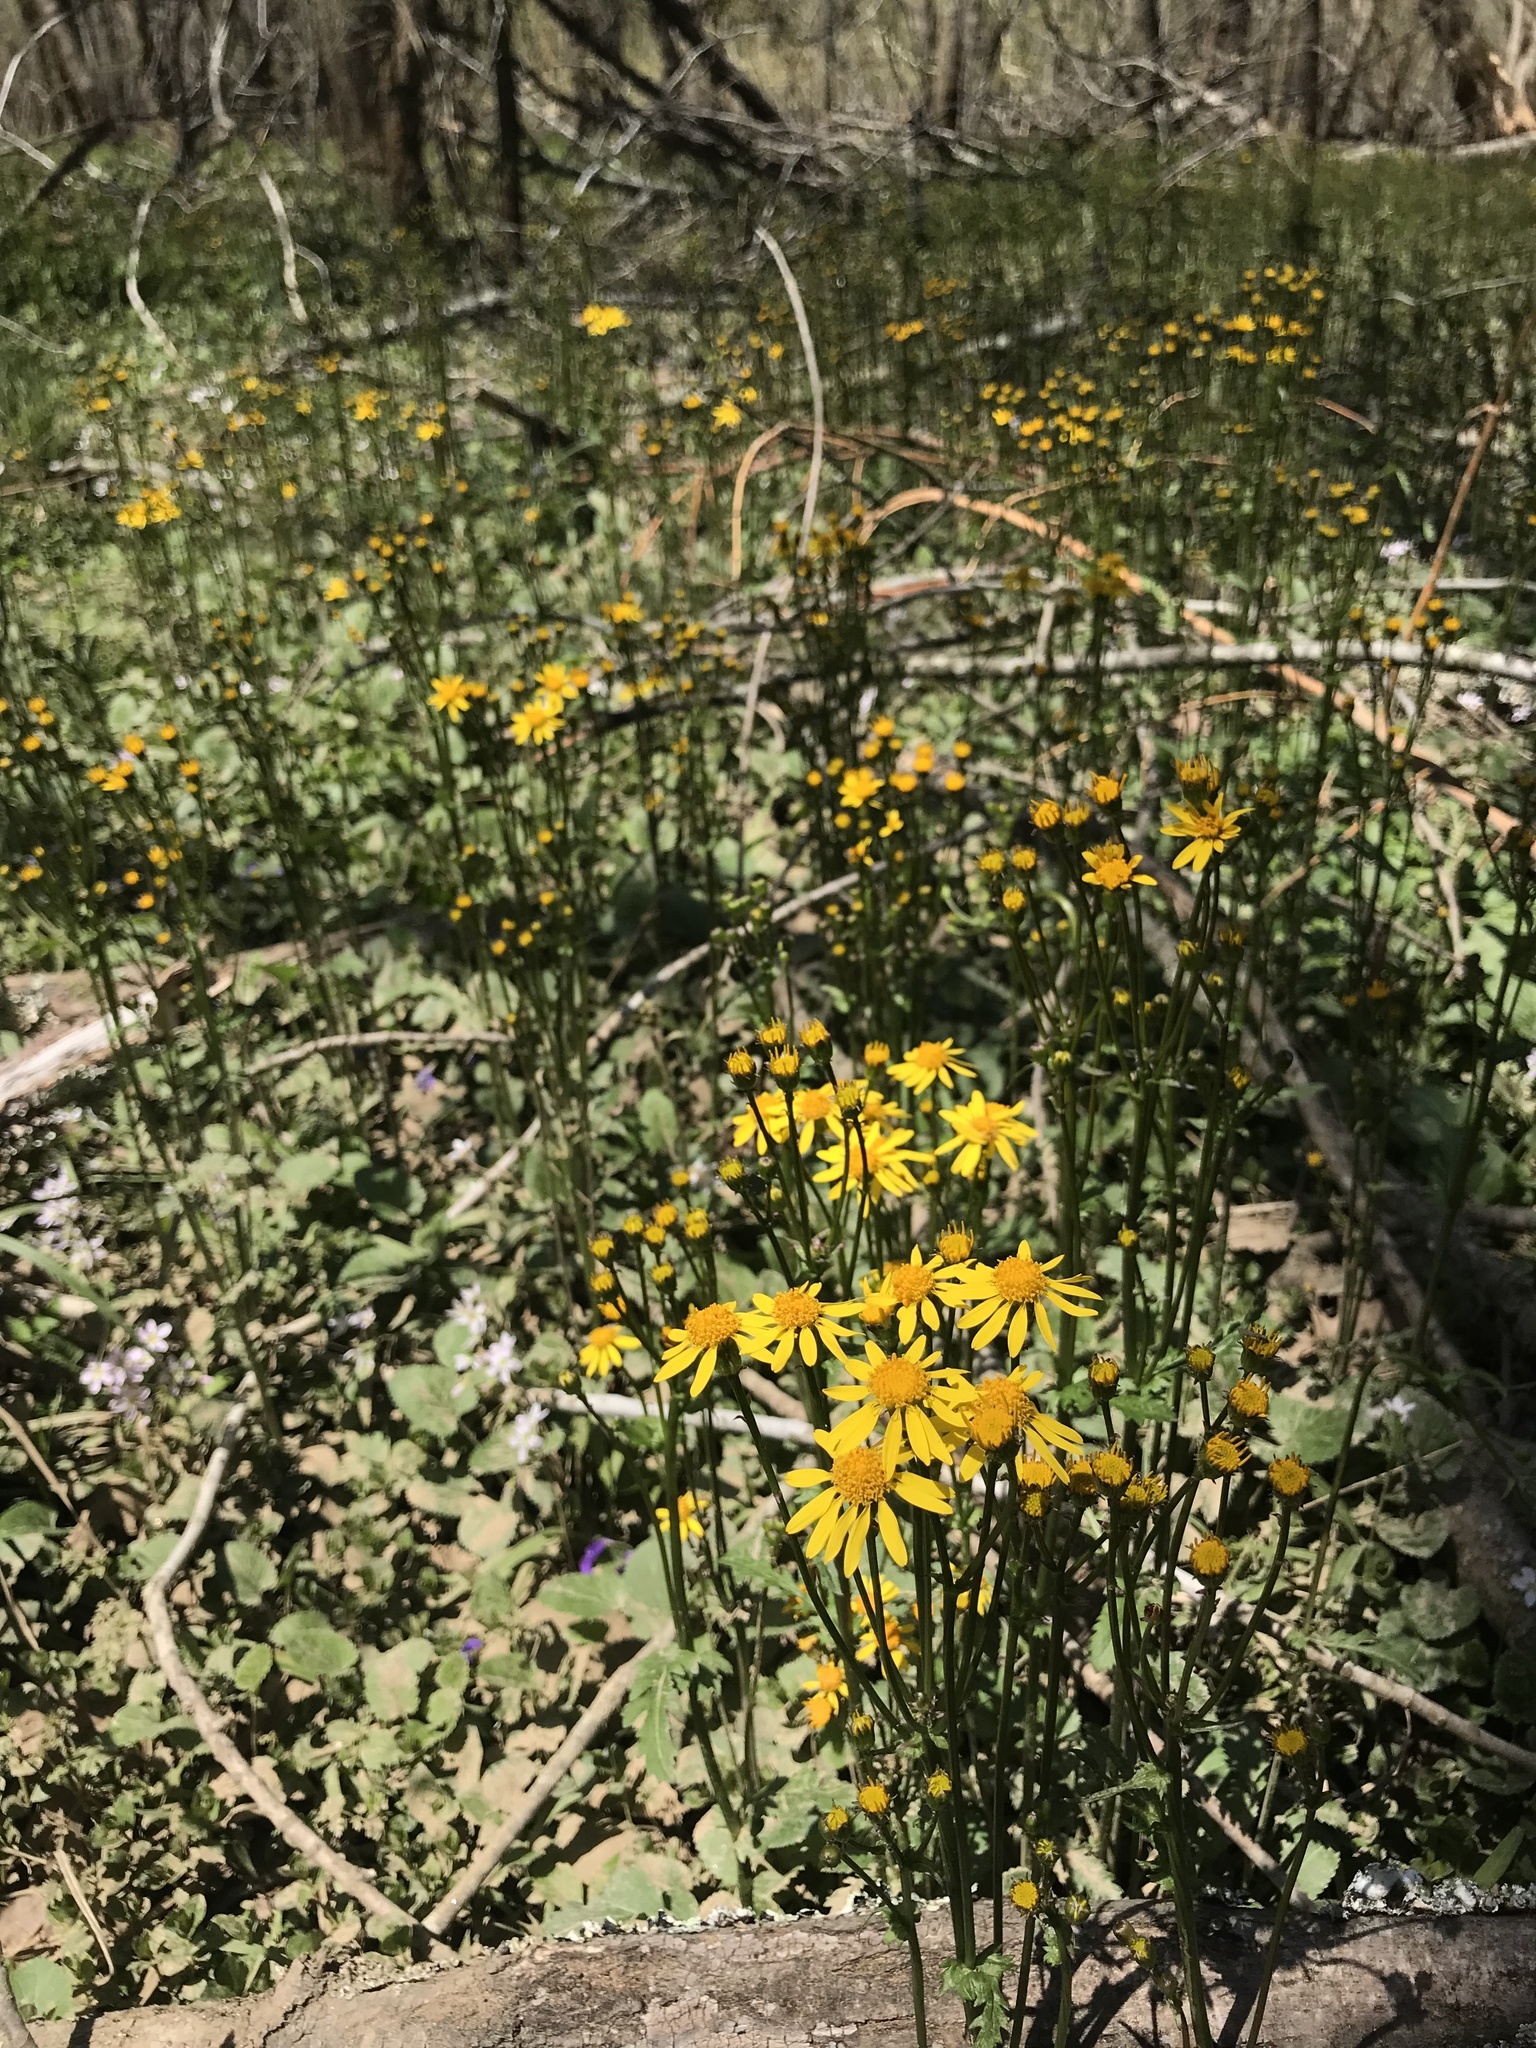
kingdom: Plantae
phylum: Tracheophyta
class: Magnoliopsida
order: Asterales
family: Asteraceae
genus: Packera
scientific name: Packera aurea
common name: Golden groundsel
